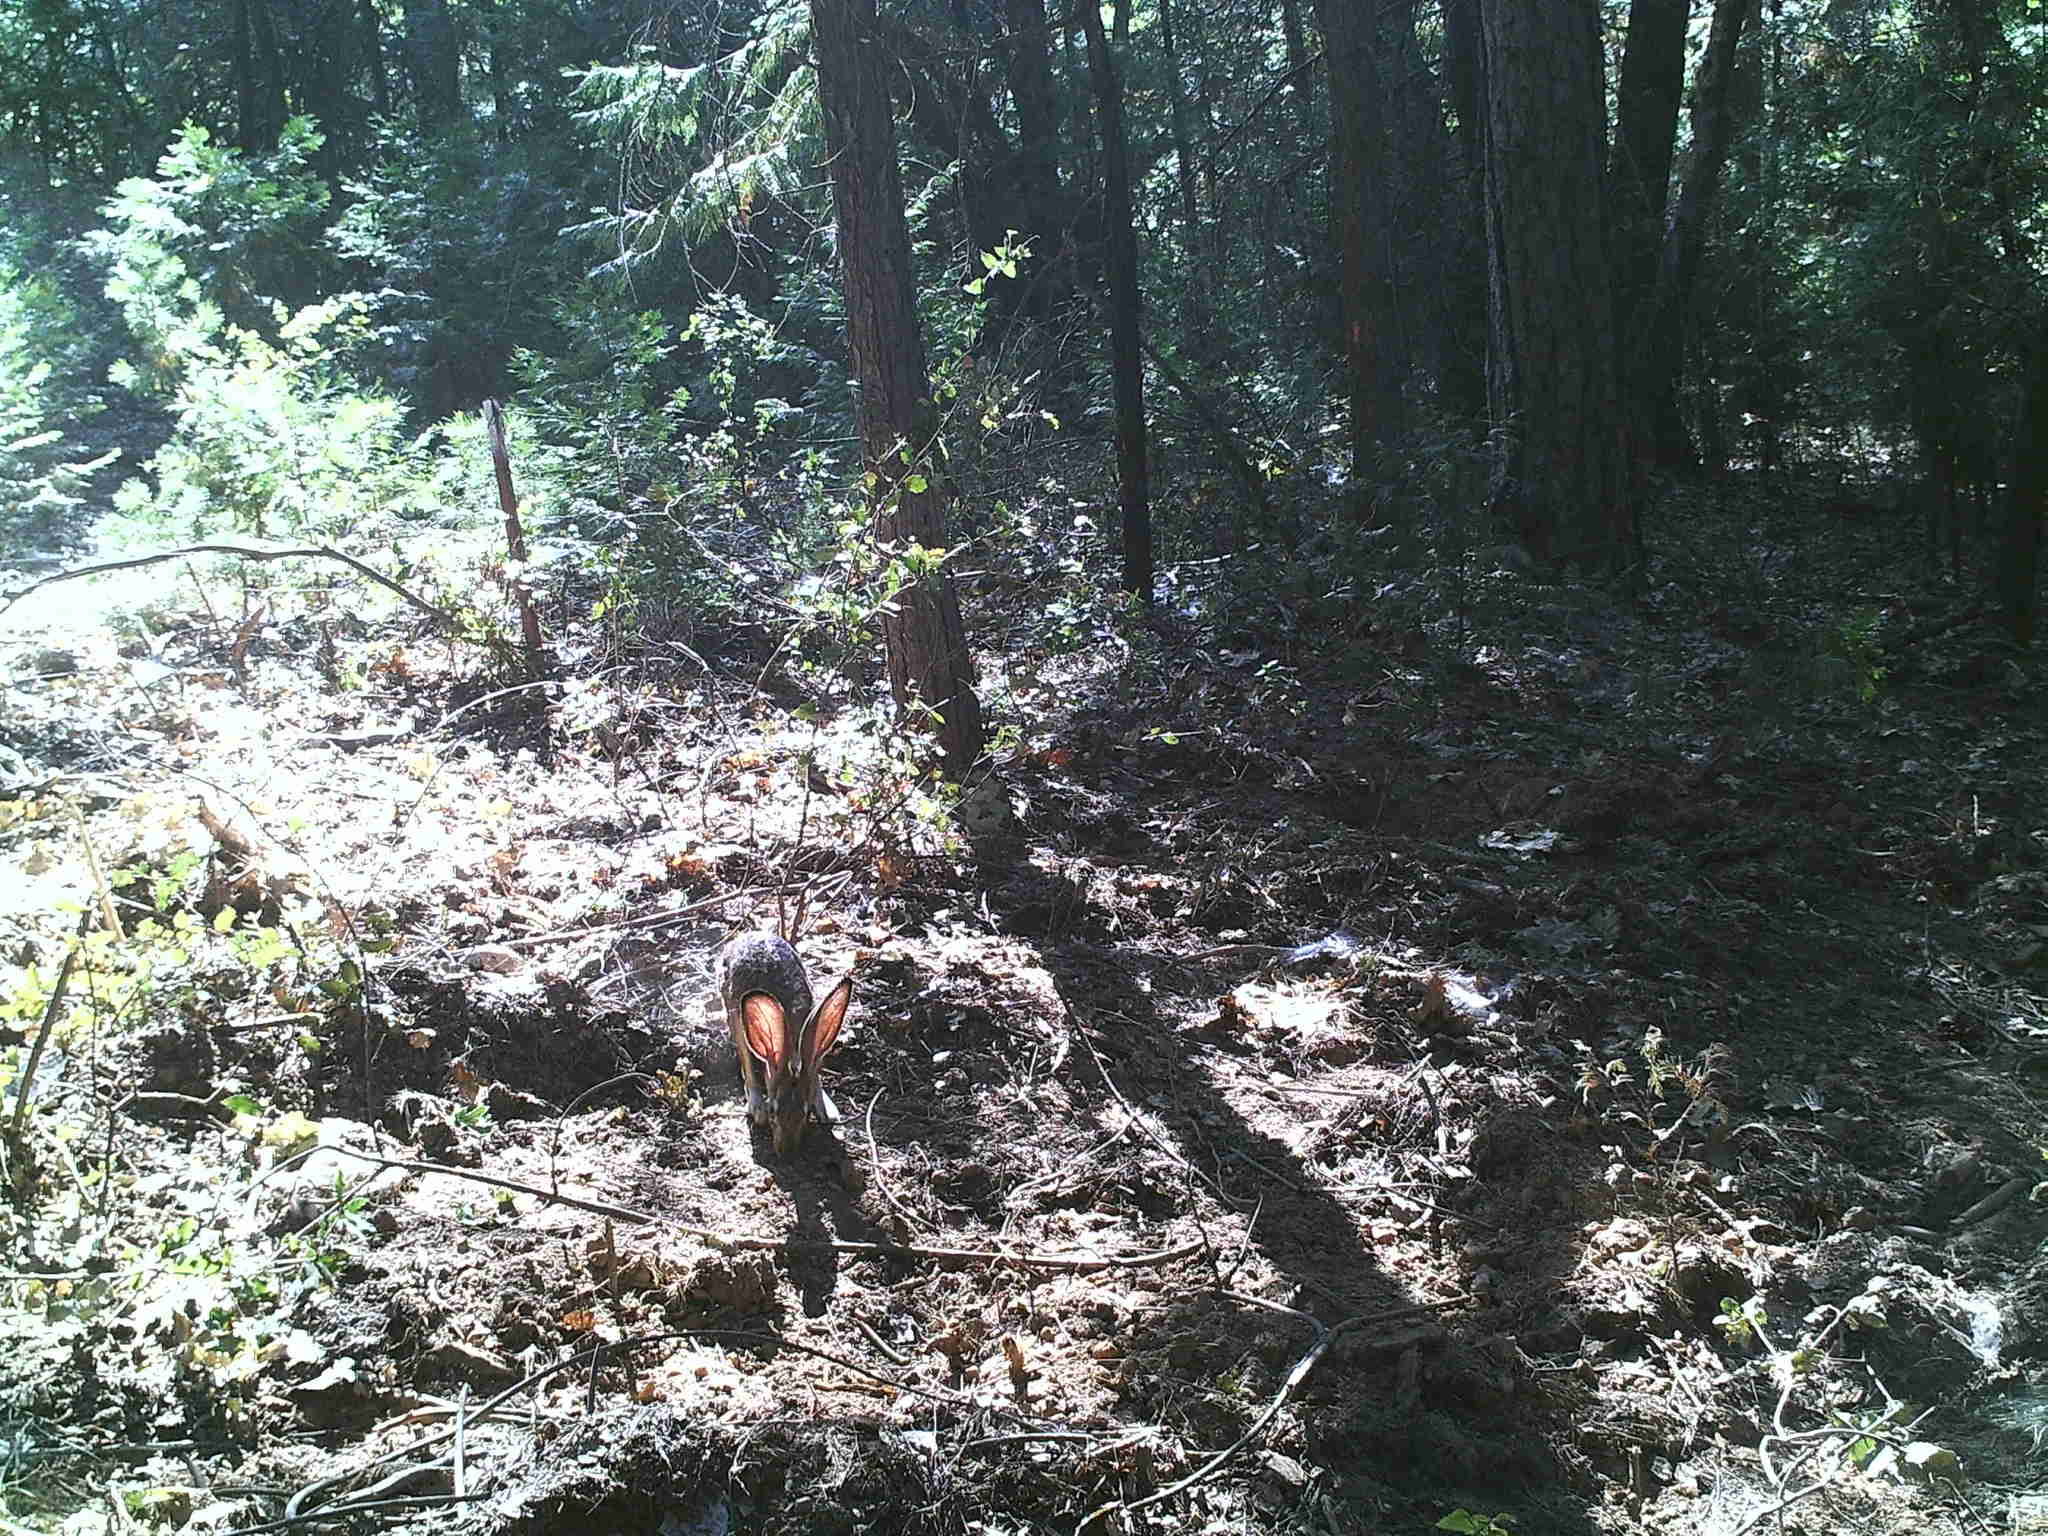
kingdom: Animalia
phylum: Chordata
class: Mammalia
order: Lagomorpha
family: Leporidae
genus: Lepus
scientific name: Lepus californicus
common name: Black-tailed jackrabbit
